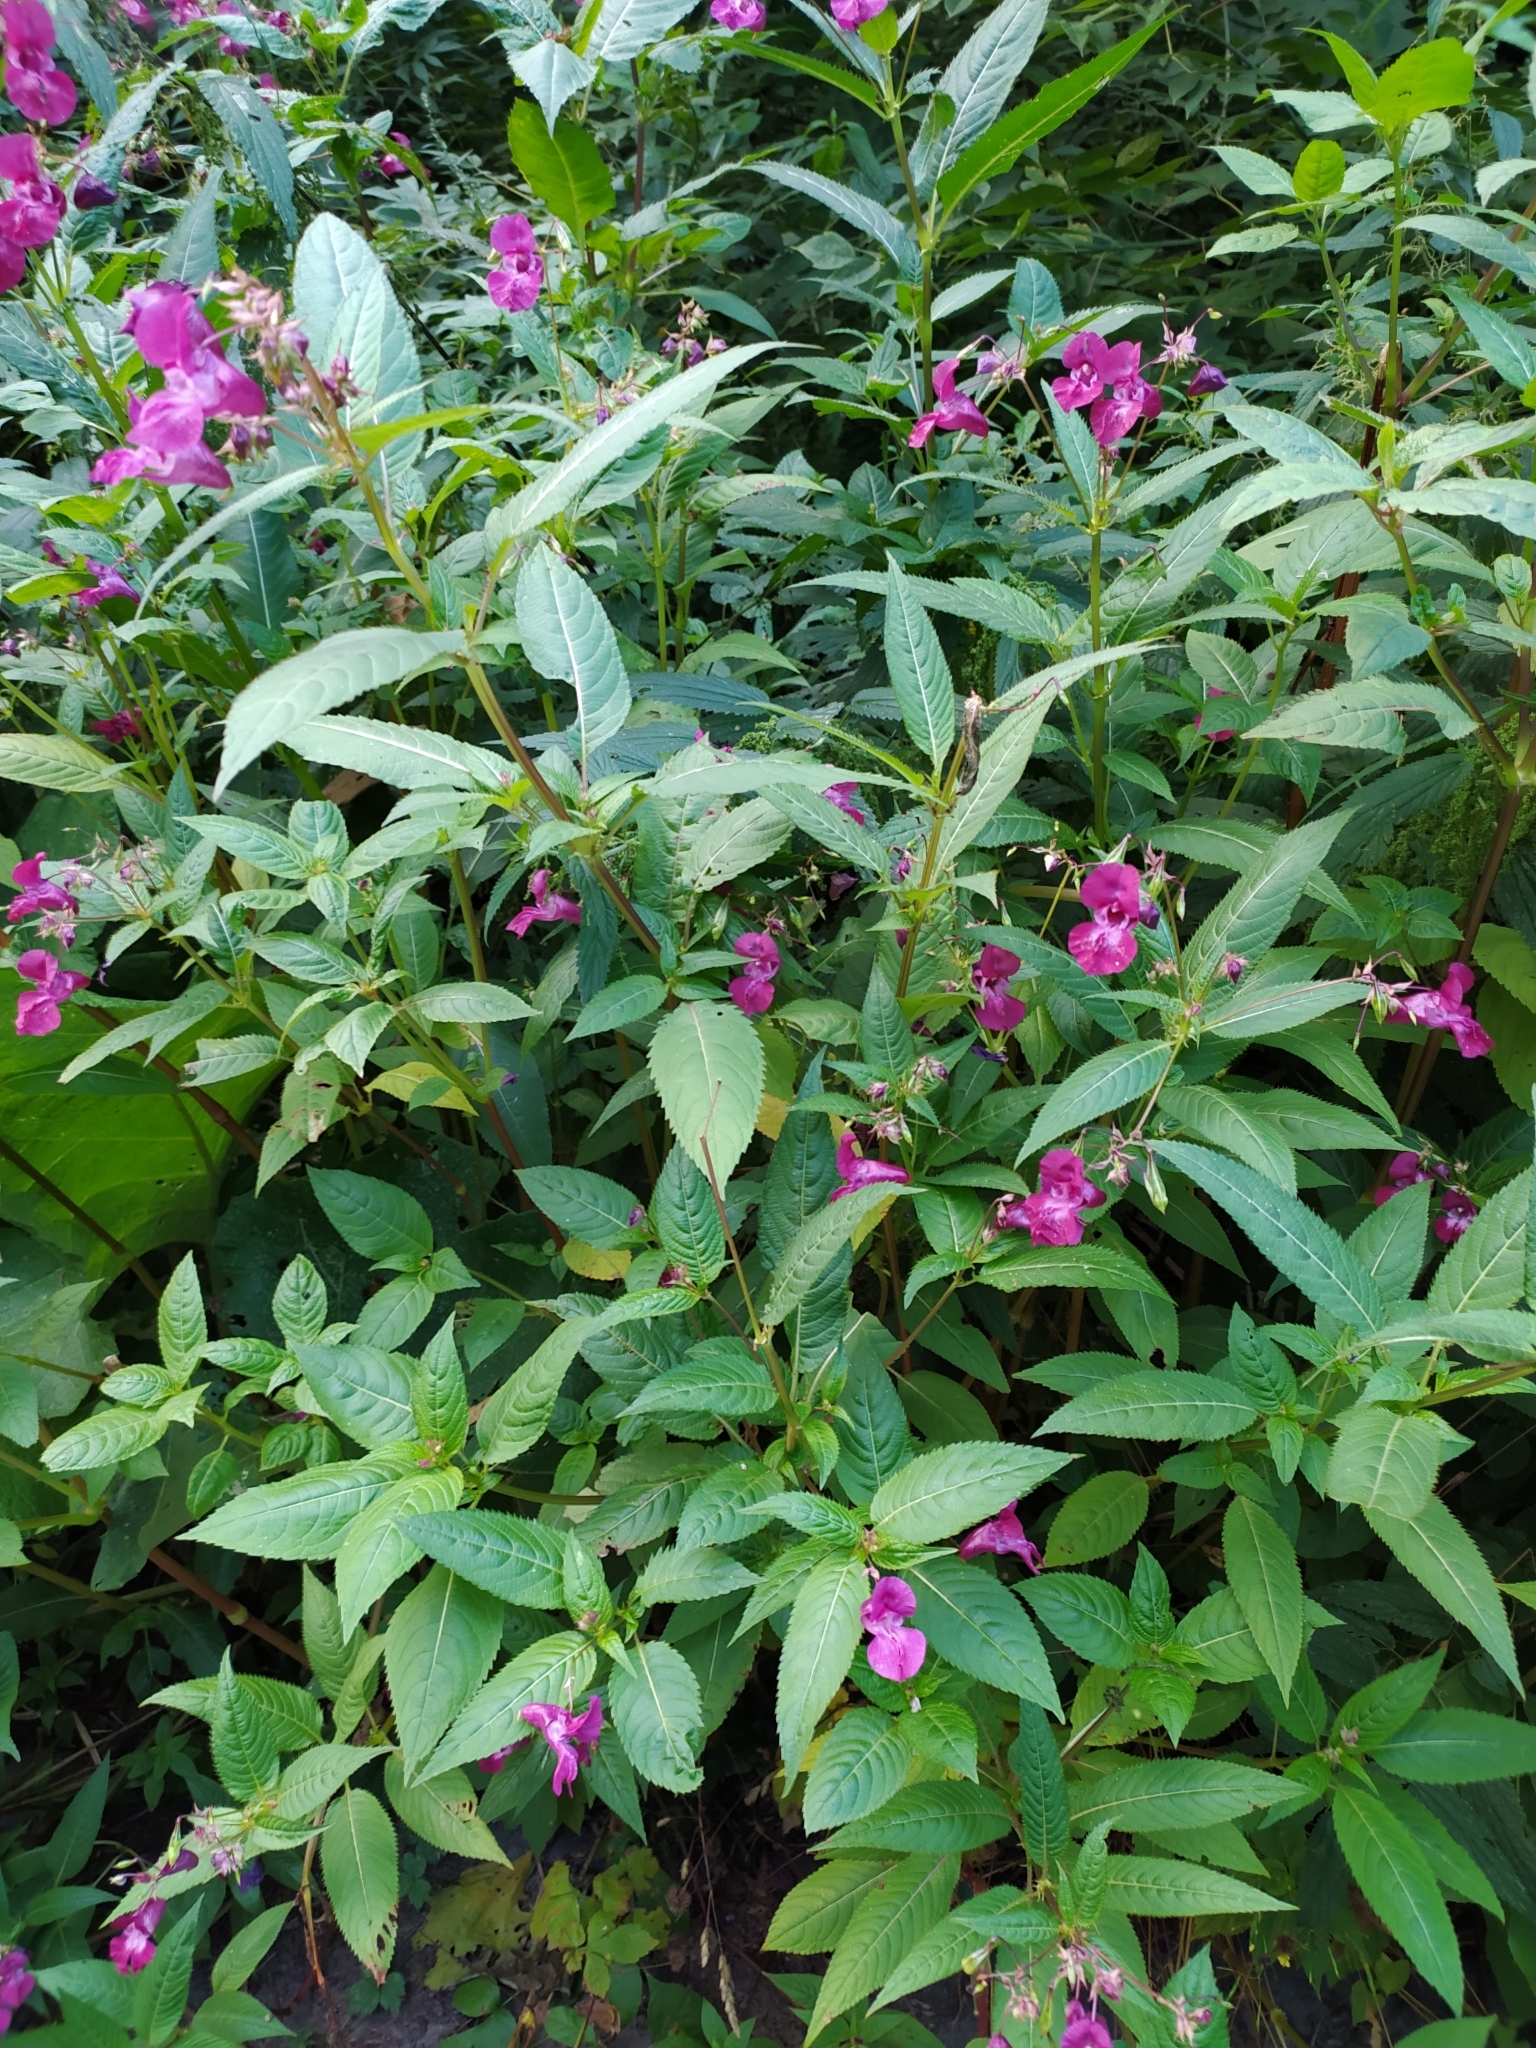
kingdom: Plantae
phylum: Tracheophyta
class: Magnoliopsida
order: Ericales
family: Balsaminaceae
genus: Impatiens
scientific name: Impatiens glandulifera
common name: Himalayan balsam
